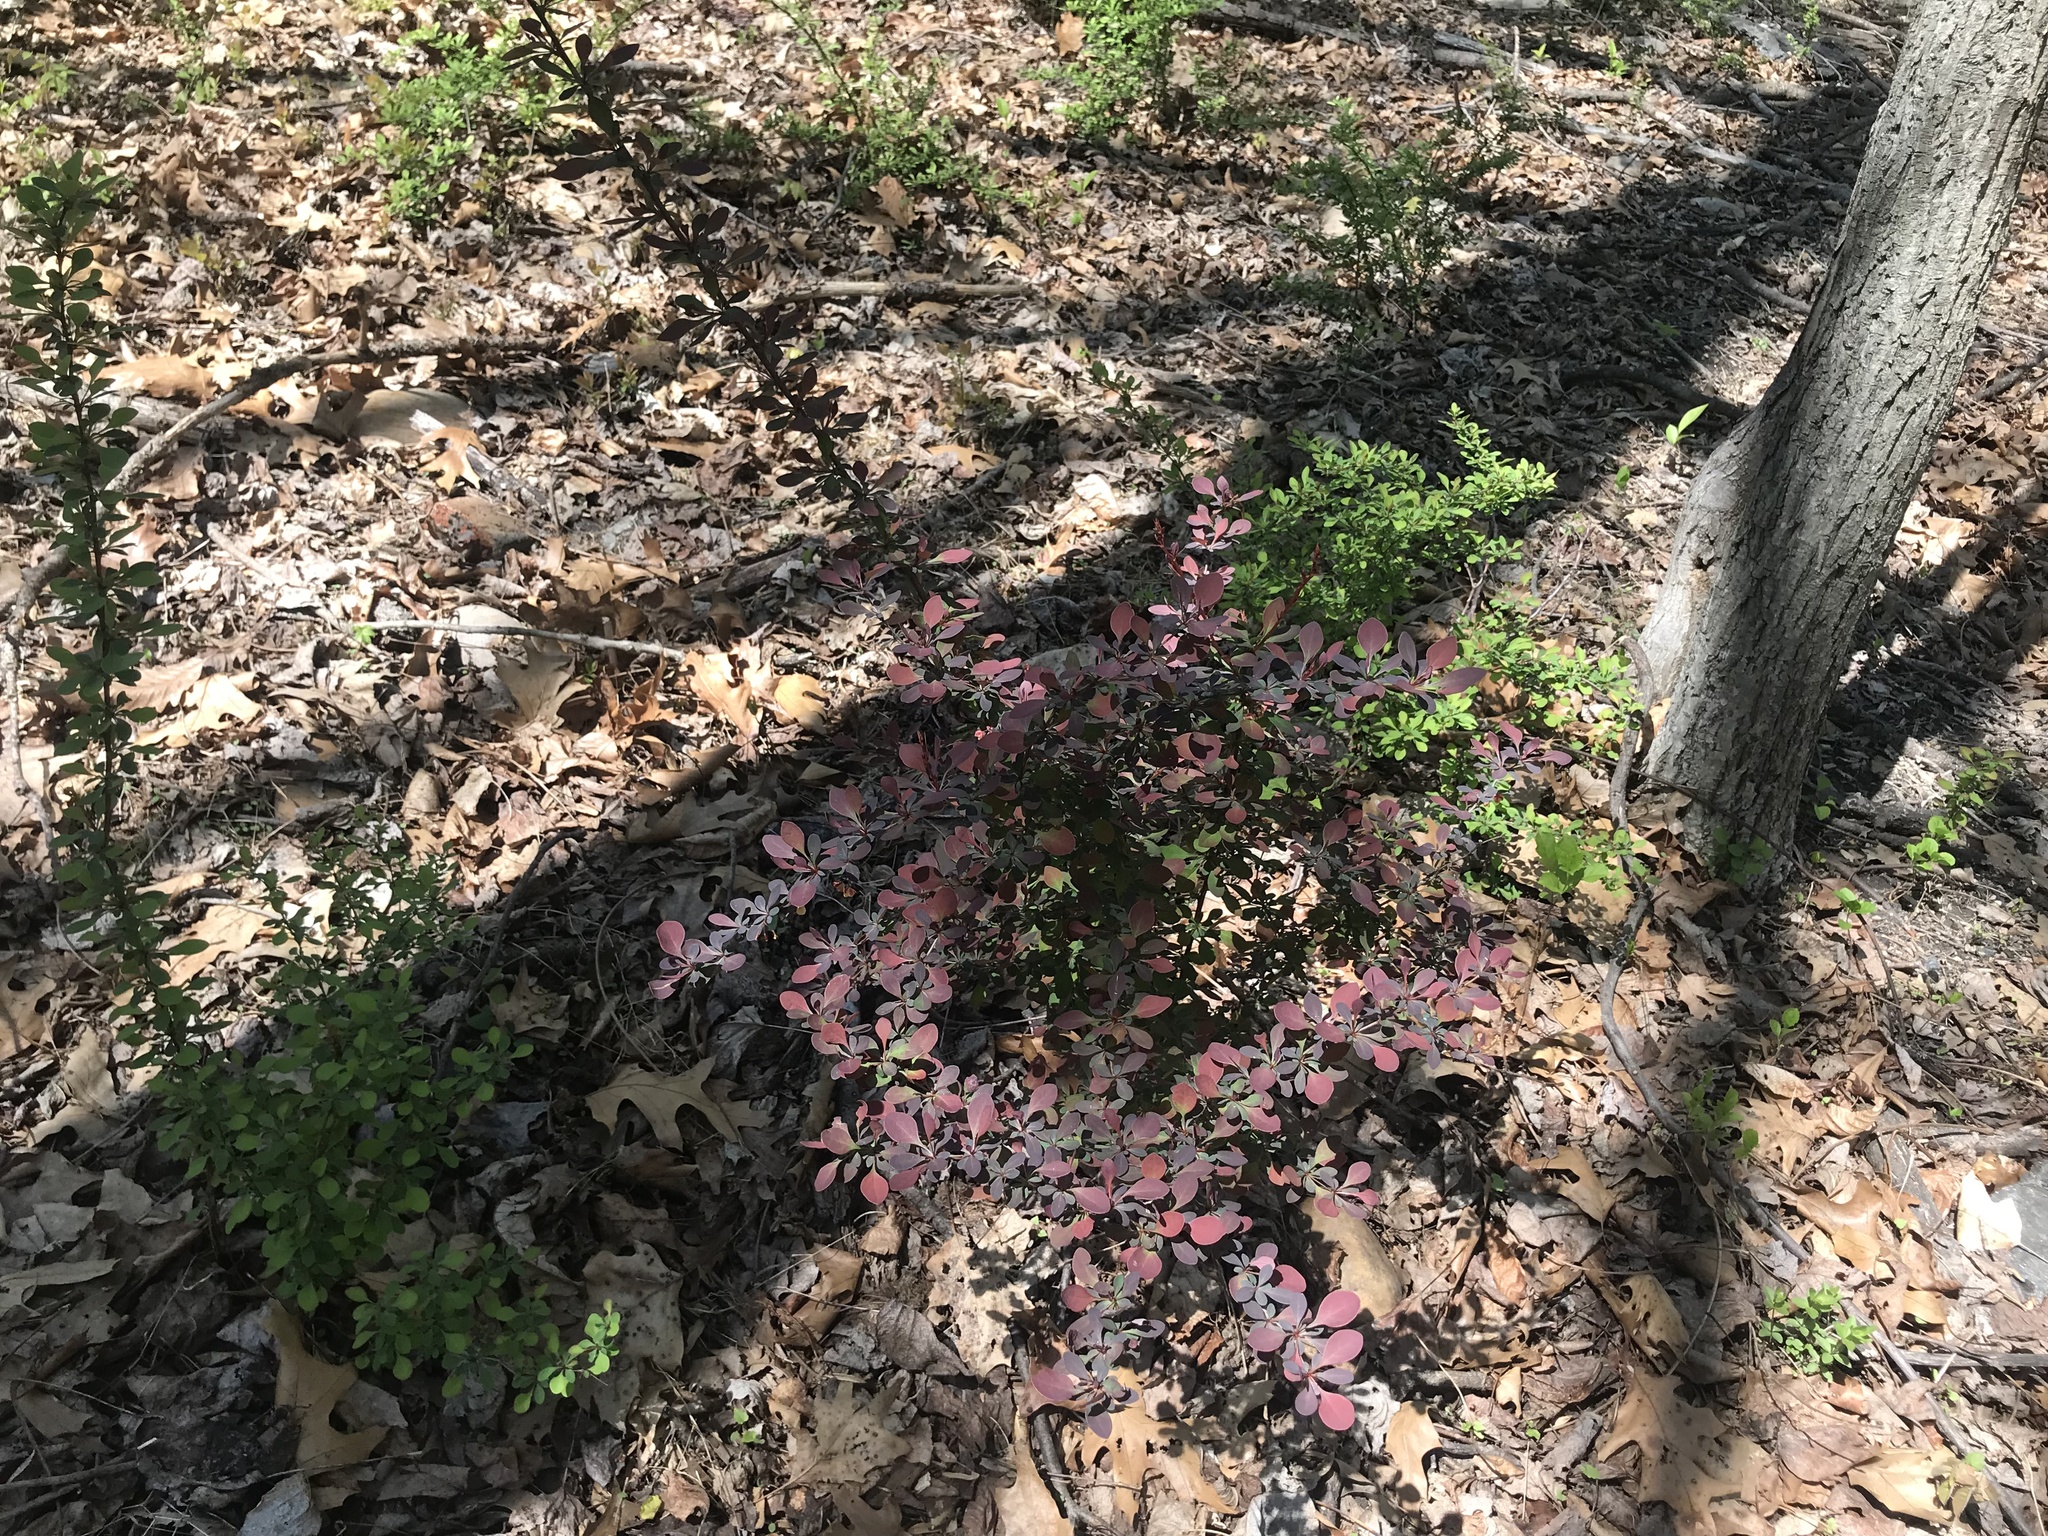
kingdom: Plantae
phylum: Tracheophyta
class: Magnoliopsida
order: Ranunculales
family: Berberidaceae
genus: Berberis
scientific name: Berberis thunbergii
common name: Japanese barberry
